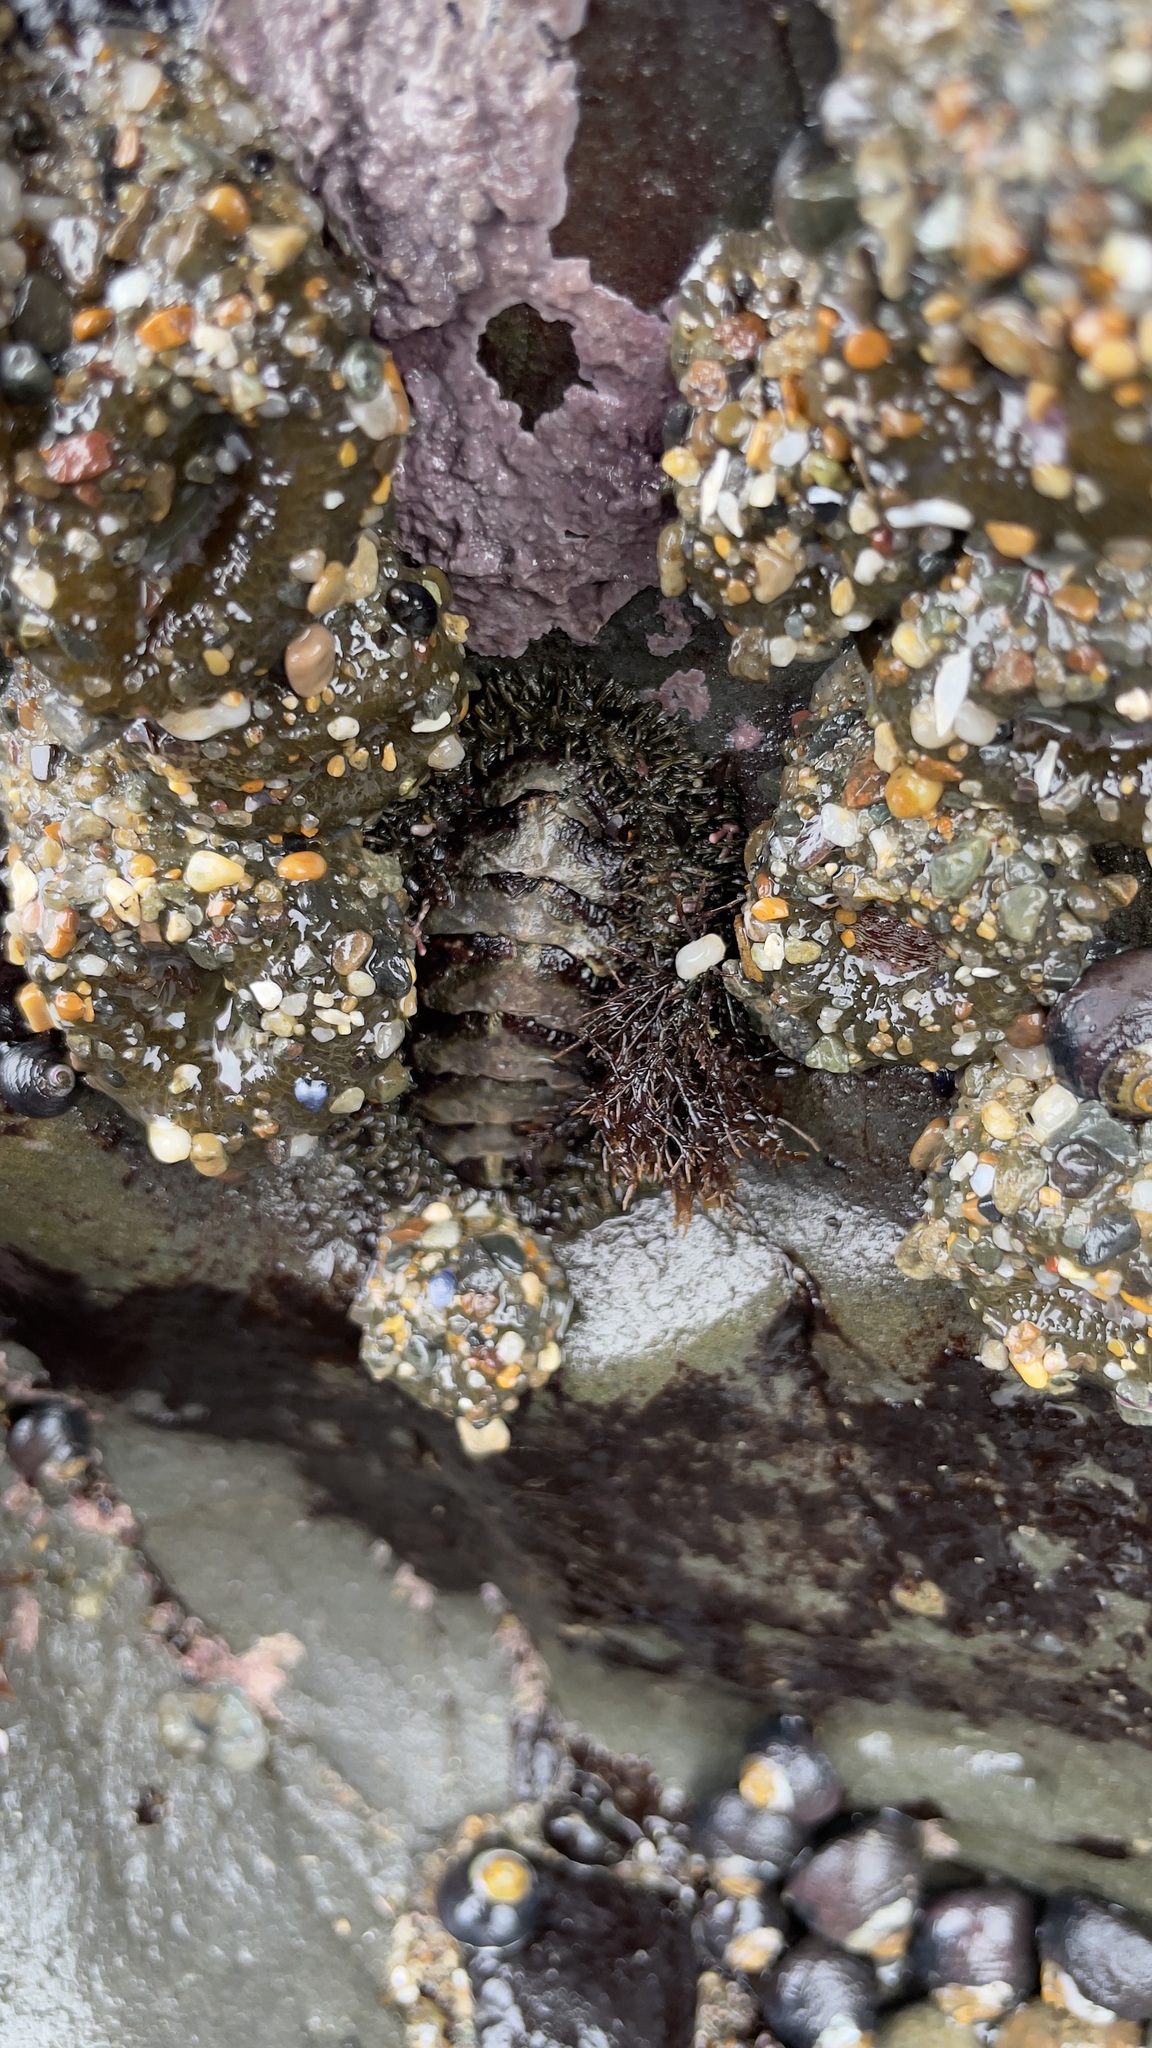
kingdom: Animalia
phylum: Mollusca
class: Polyplacophora
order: Chitonida
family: Mopaliidae
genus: Mopalia
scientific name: Mopalia muscosa
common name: Mossy chiton
